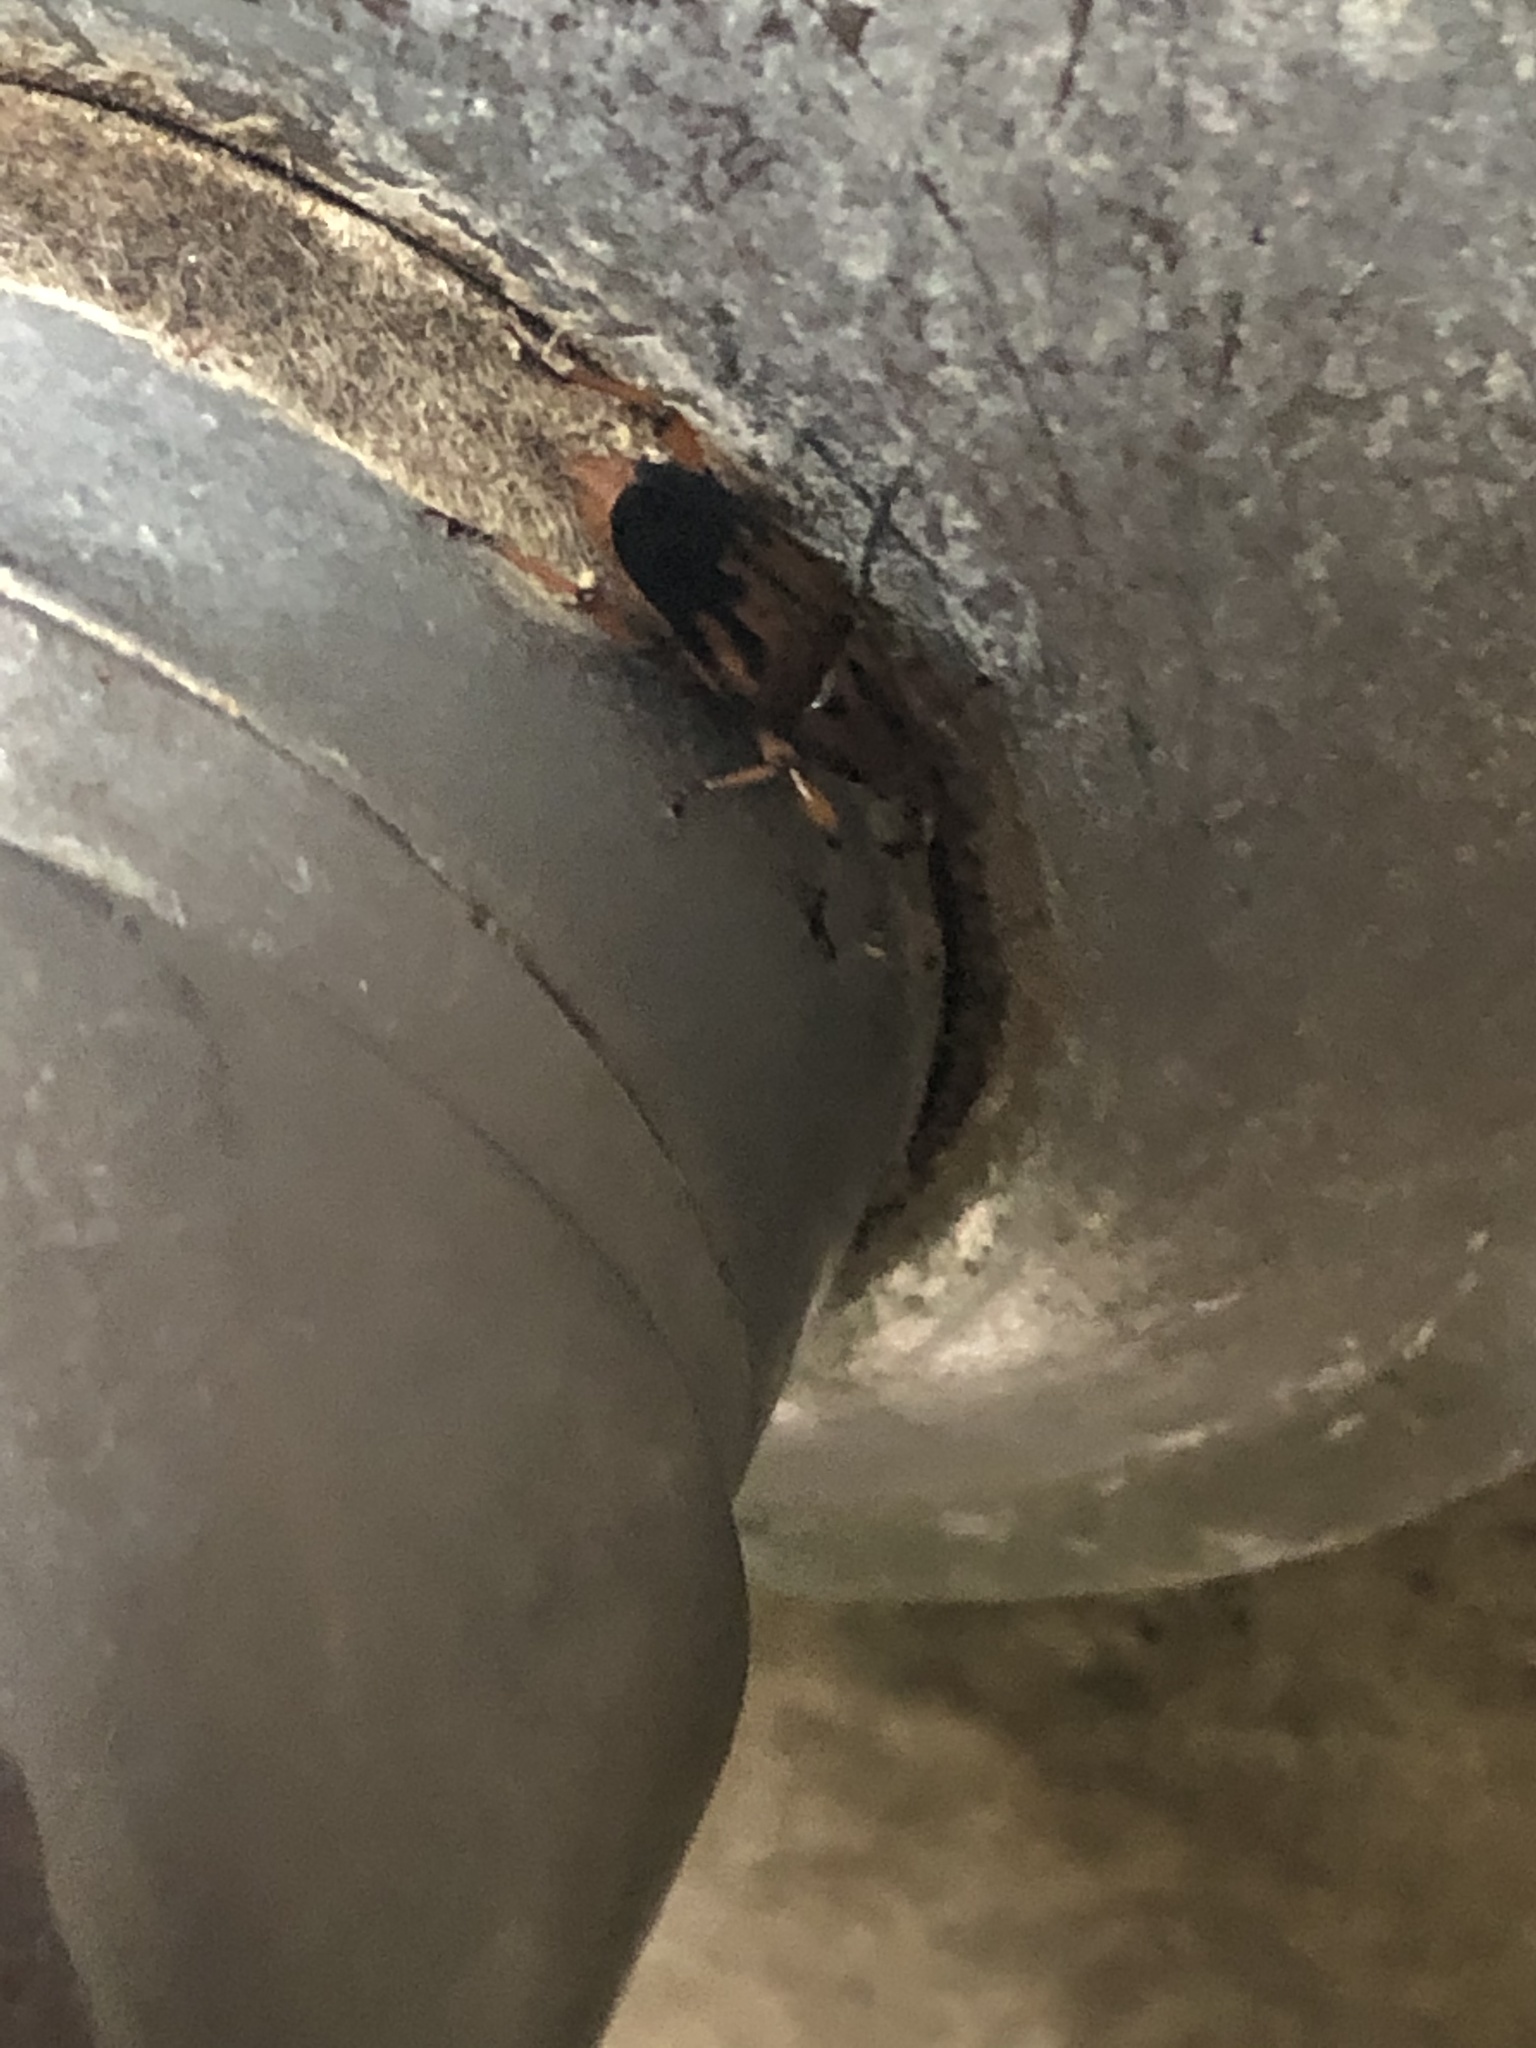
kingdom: Animalia
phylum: Arthropoda
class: Insecta
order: Coleoptera
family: Dryophthoridae
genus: Metamasius
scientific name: Metamasius hemipterus
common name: Weevil
